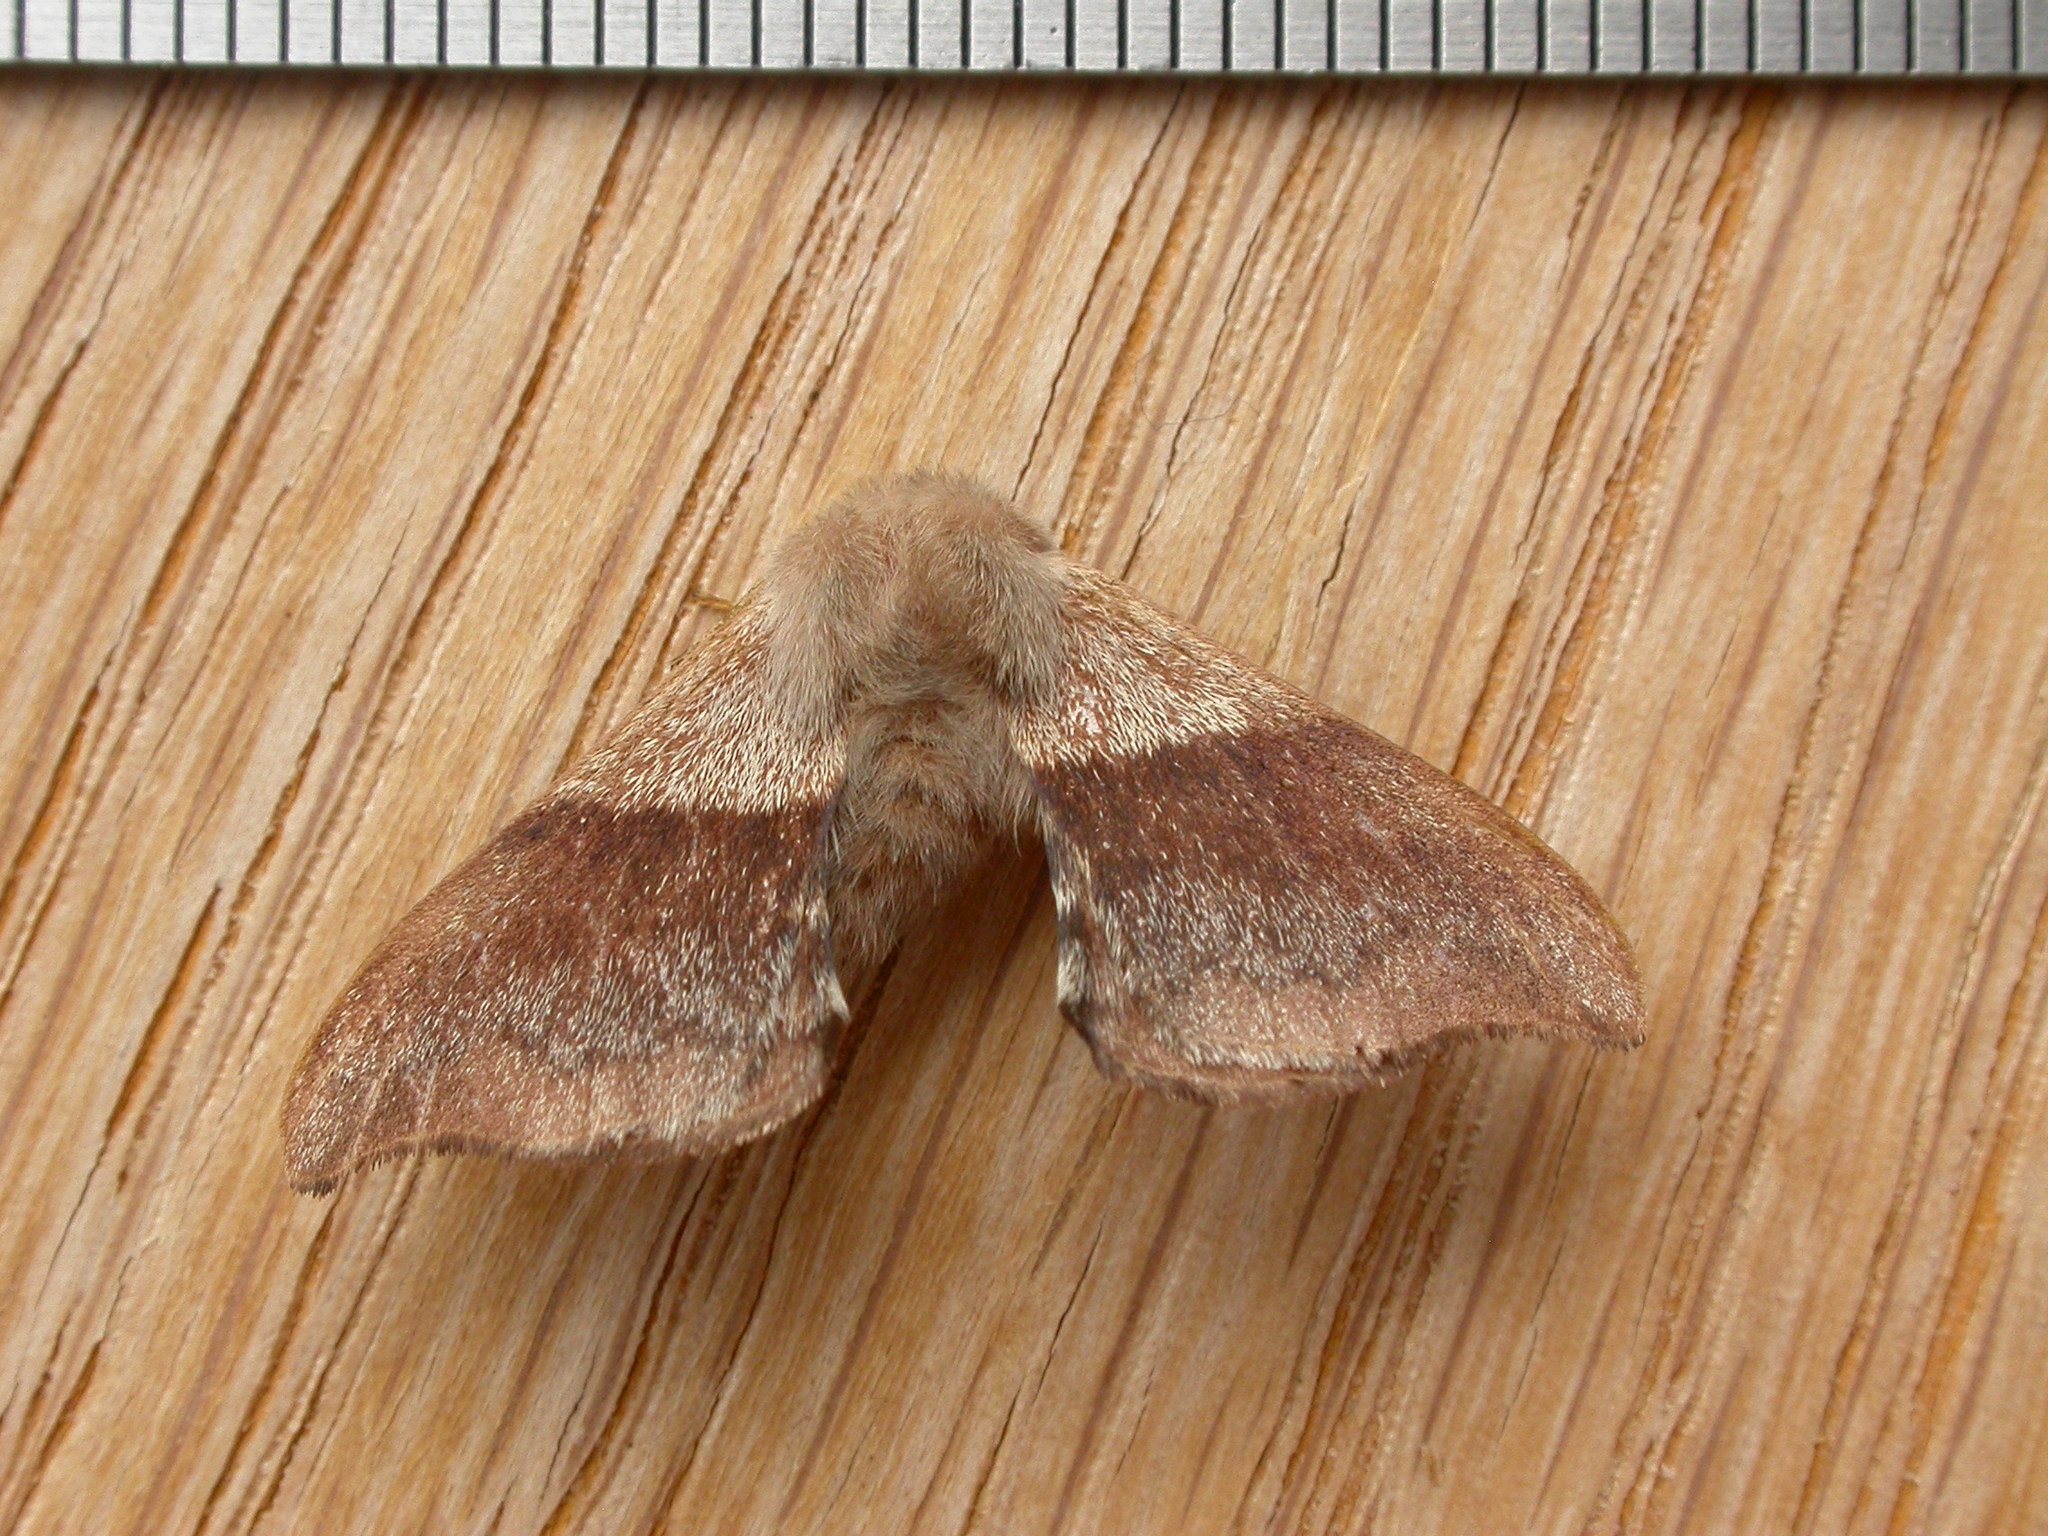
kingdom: Animalia
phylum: Arthropoda
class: Insecta
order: Lepidoptera
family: Eupterotidae
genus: Panacela
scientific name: Panacela lewinae
